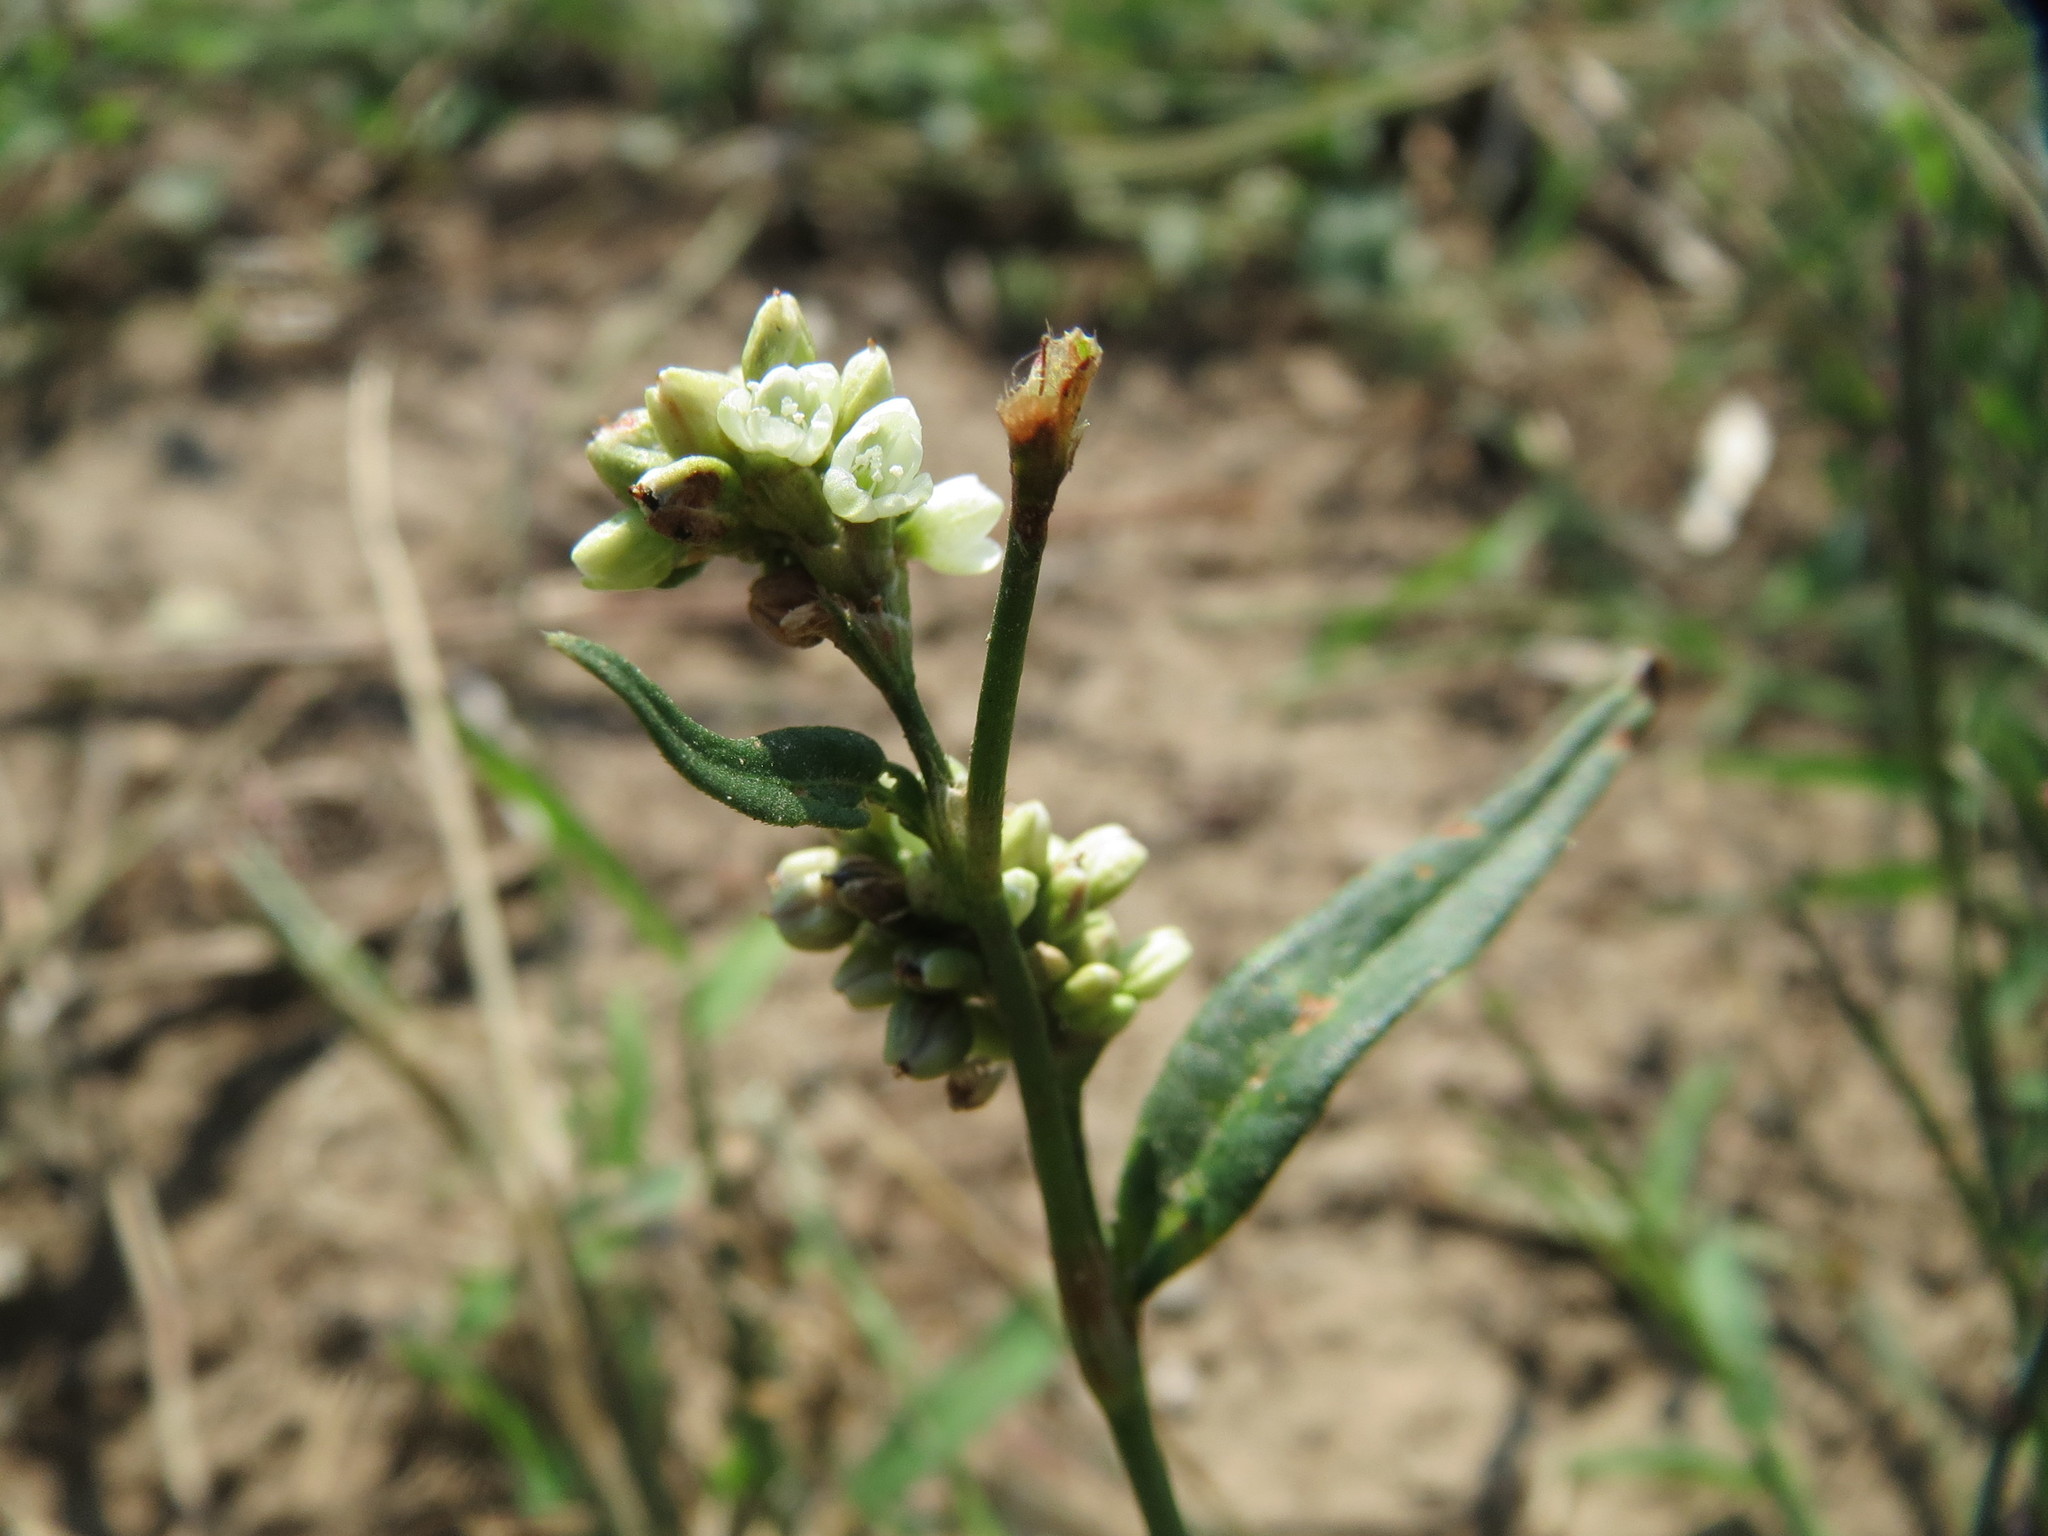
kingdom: Plantae
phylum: Tracheophyta
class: Magnoliopsida
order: Caryophyllales
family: Polygonaceae
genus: Persicaria
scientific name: Persicaria maculosa
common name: Redshank
